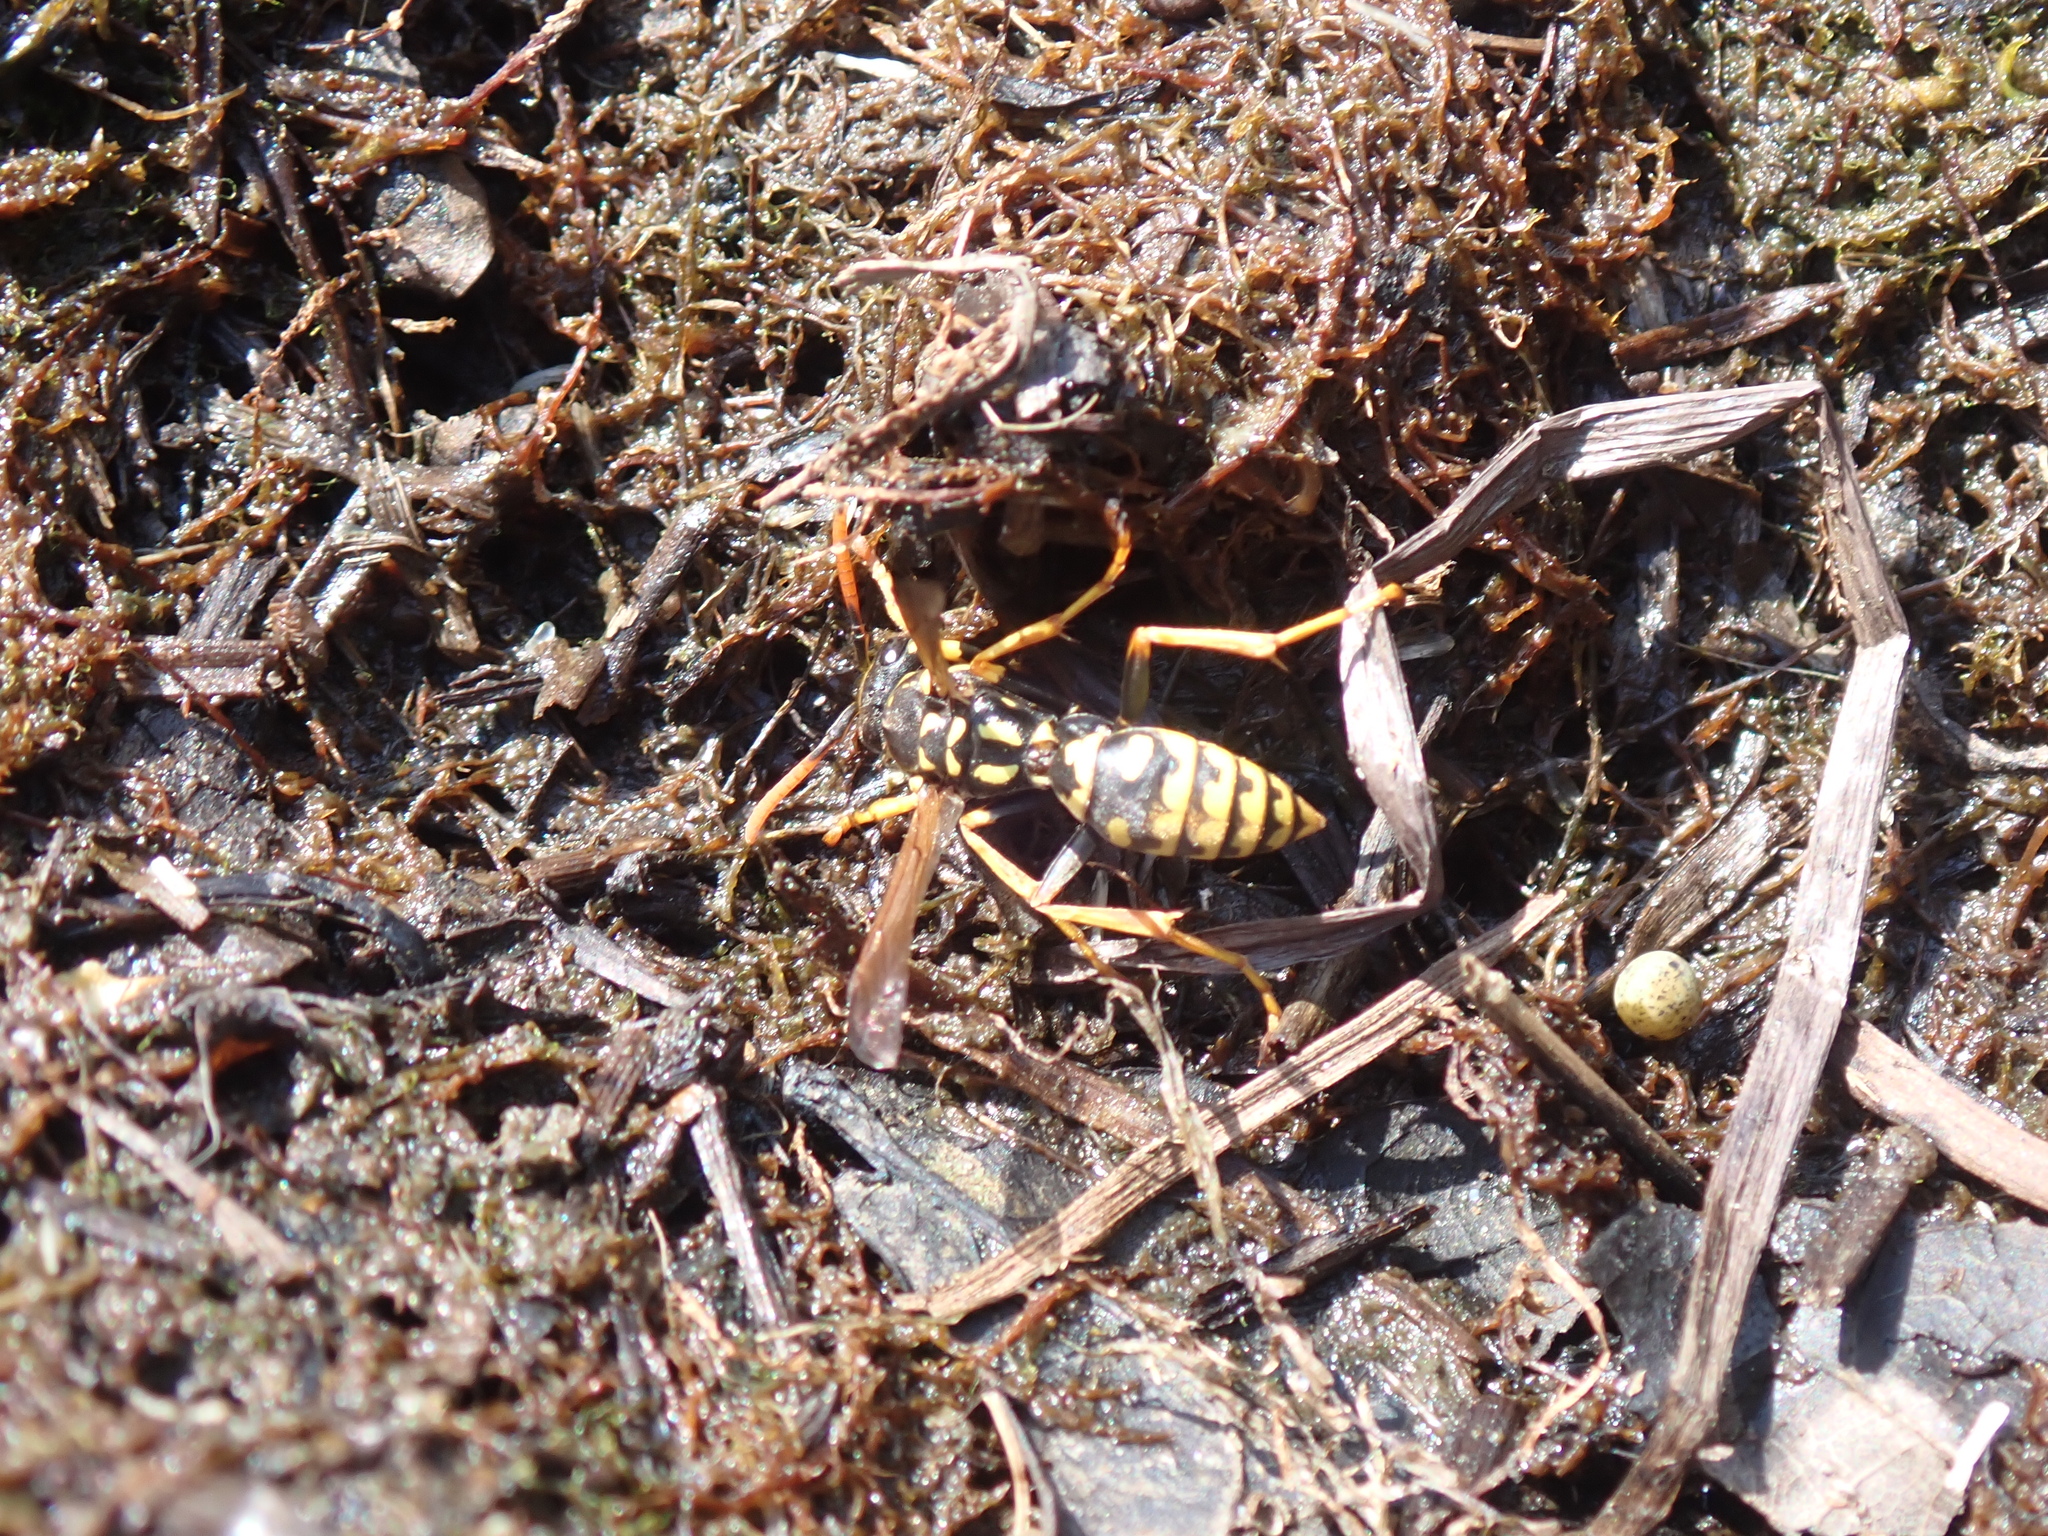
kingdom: Animalia
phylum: Arthropoda
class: Insecta
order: Hymenoptera
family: Eumenidae
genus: Polistes
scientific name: Polistes dominula
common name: Paper wasp
